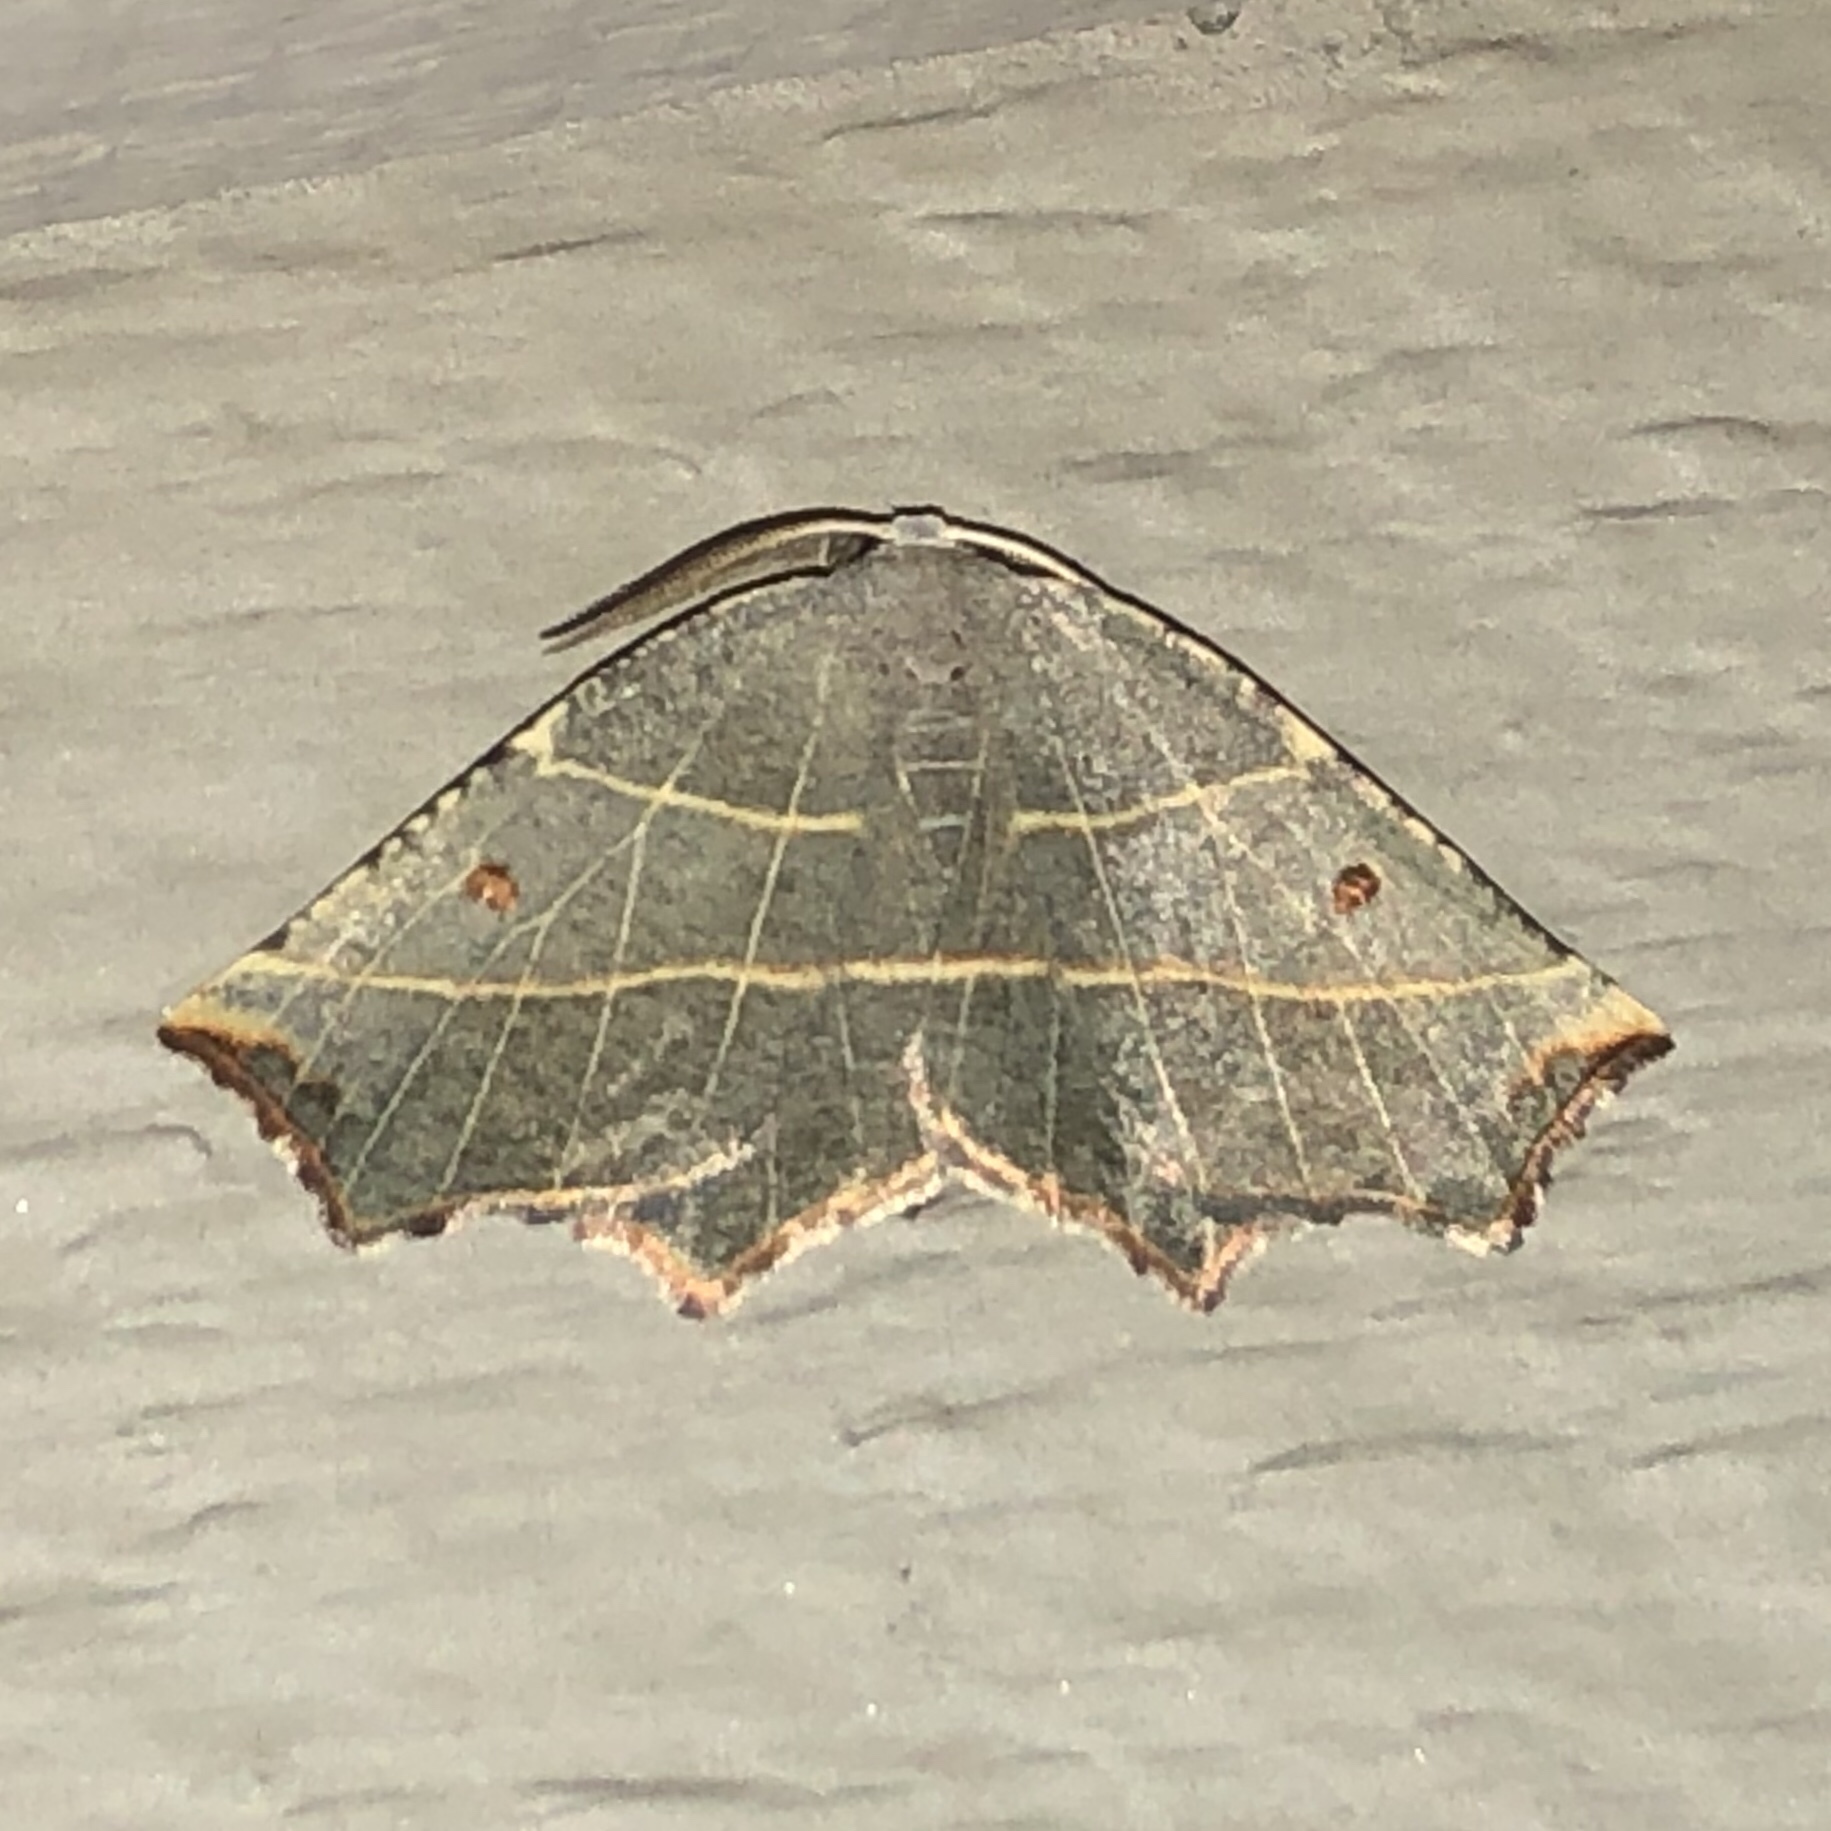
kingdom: Animalia
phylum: Arthropoda
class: Insecta
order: Lepidoptera
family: Geometridae
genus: Metanema
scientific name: Metanema inatomaria
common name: Pale metanema
